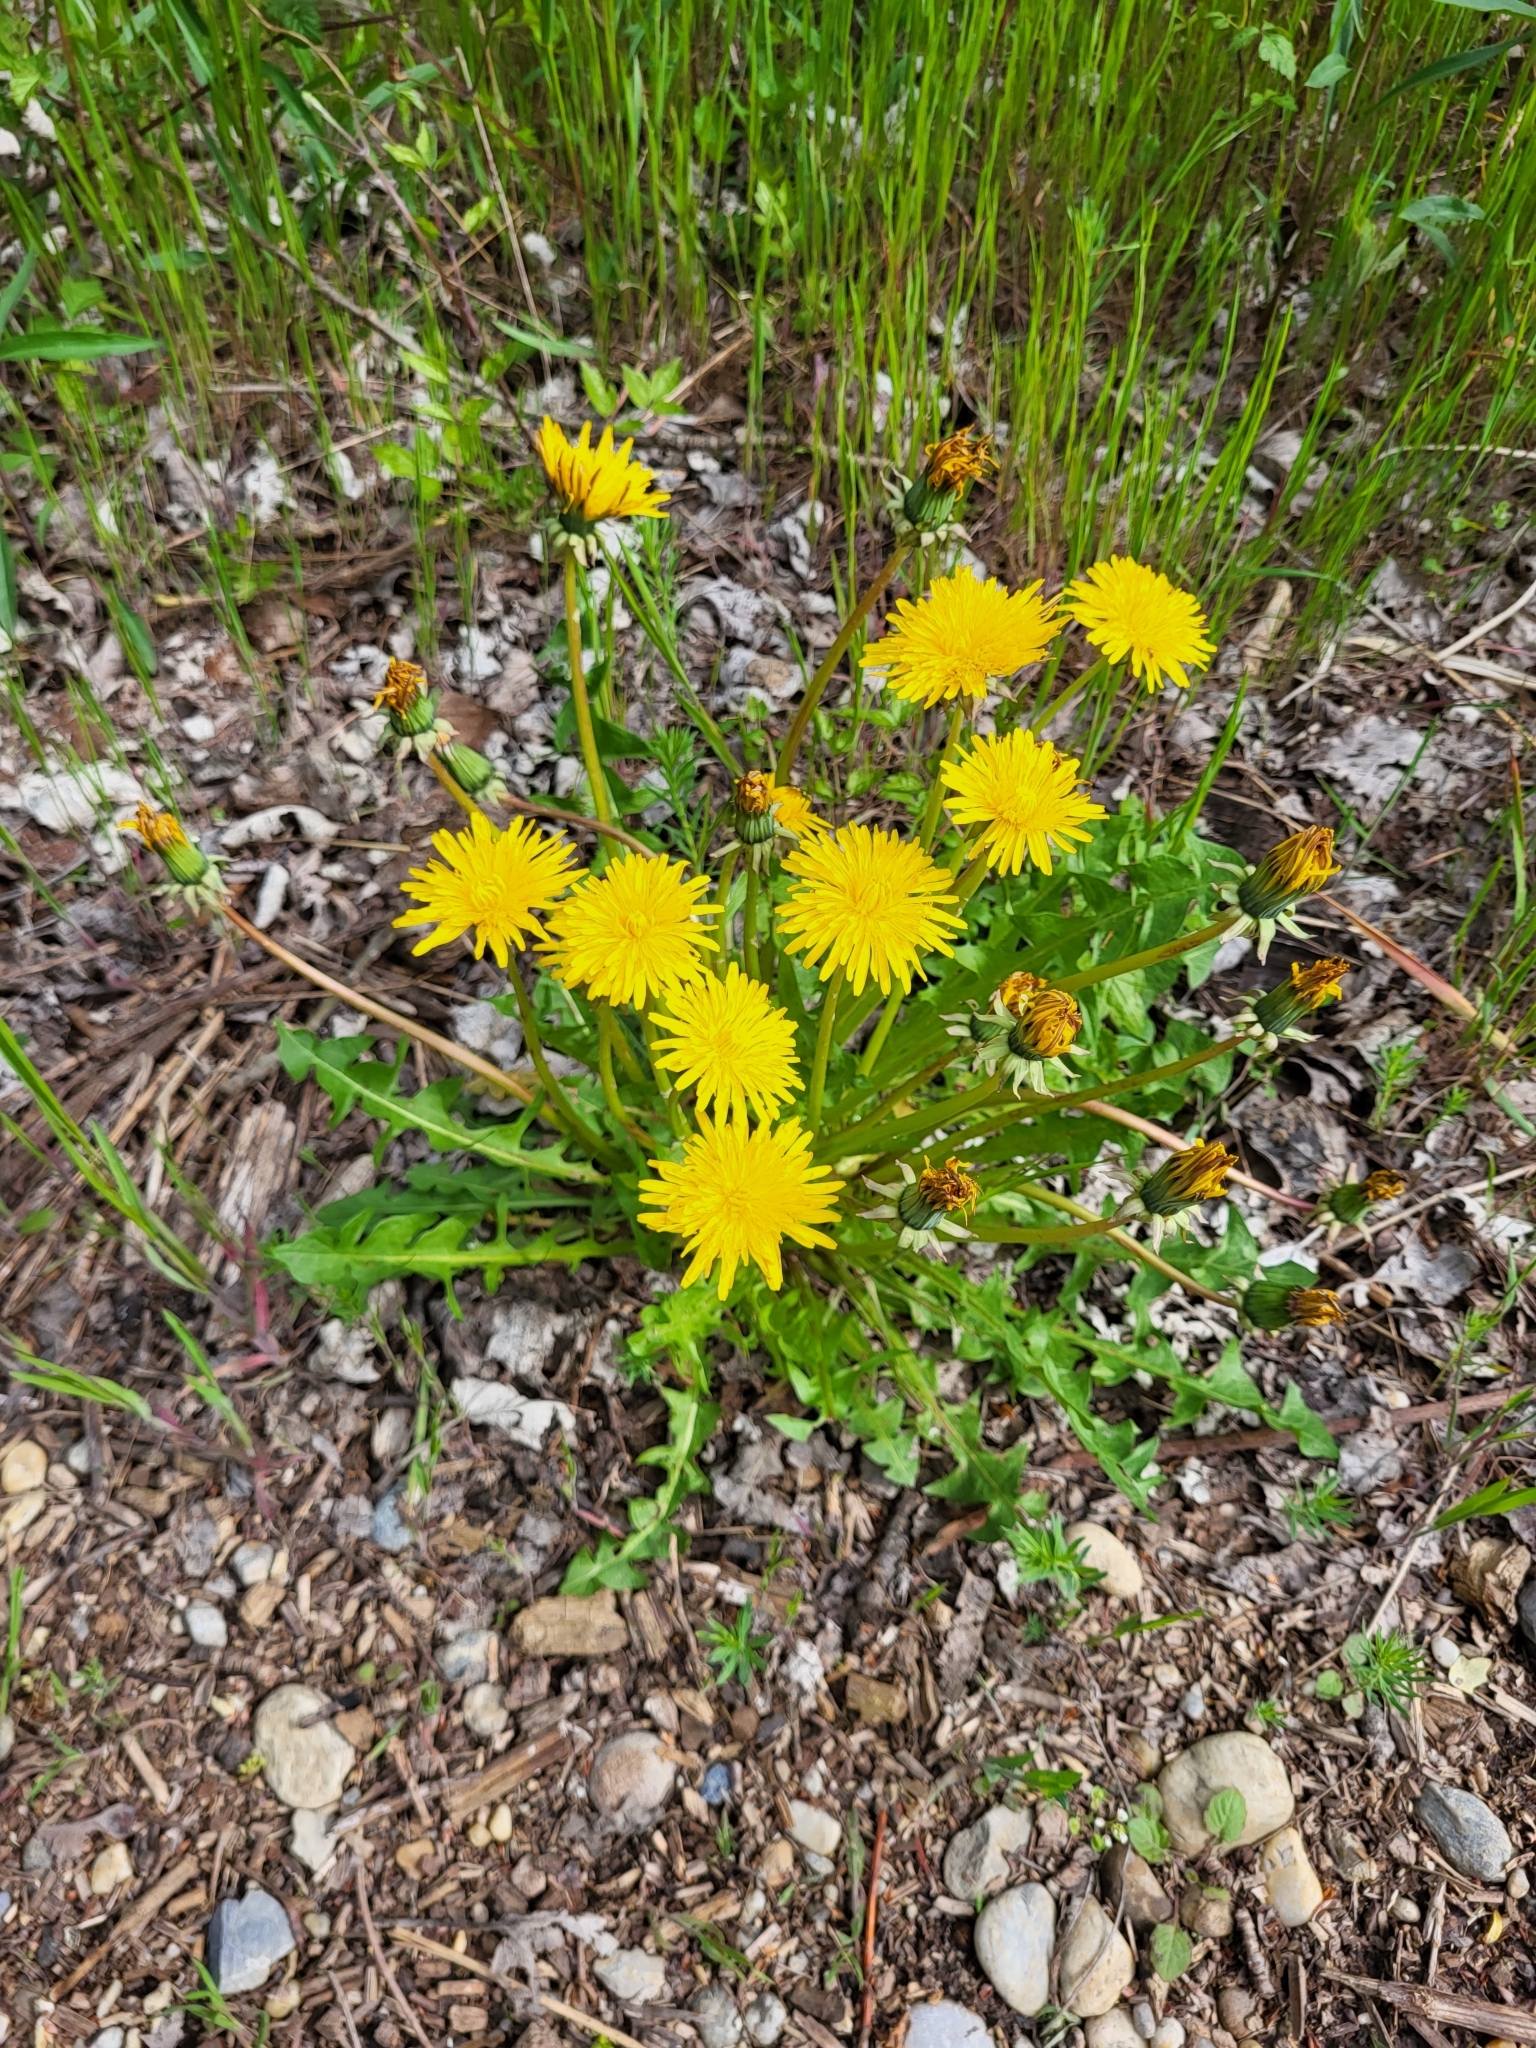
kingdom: Plantae
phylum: Tracheophyta
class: Magnoliopsida
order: Asterales
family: Asteraceae
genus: Taraxacum
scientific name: Taraxacum
